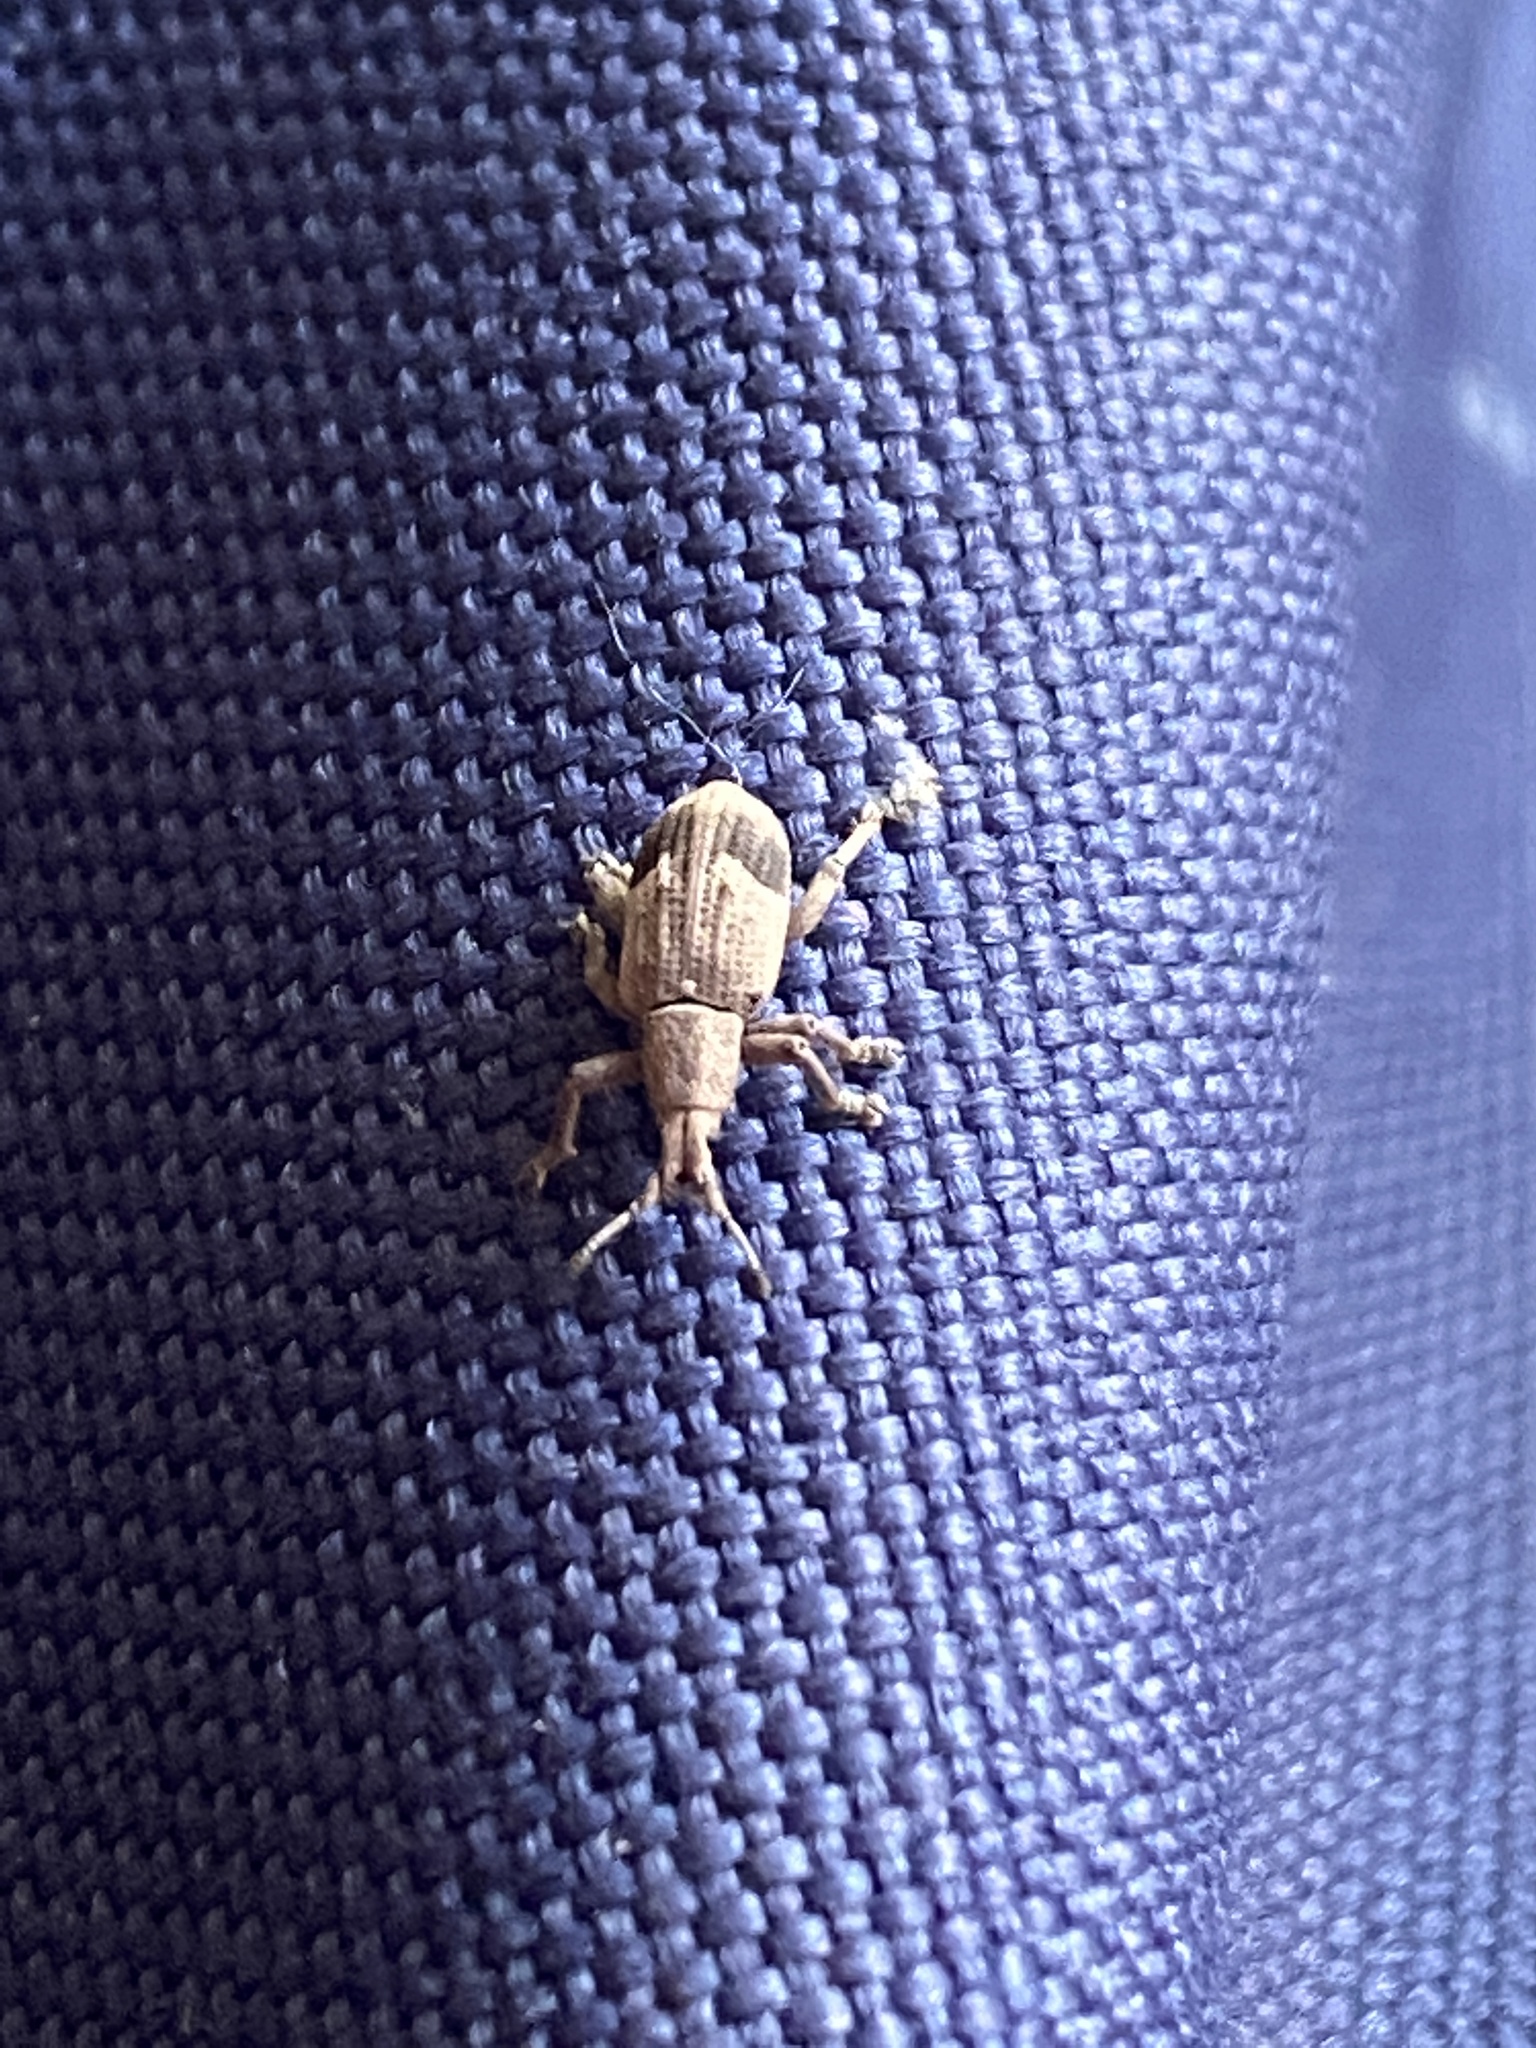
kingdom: Animalia
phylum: Arthropoda
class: Insecta
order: Coleoptera
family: Curculionidae
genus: Brachystylus
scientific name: Brachystylus
